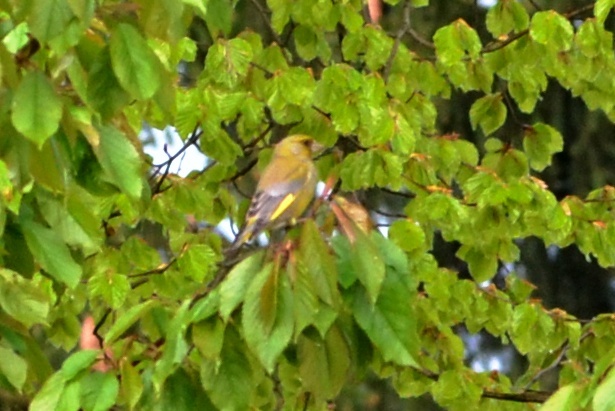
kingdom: Plantae
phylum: Tracheophyta
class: Liliopsida
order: Poales
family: Poaceae
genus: Chloris
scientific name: Chloris chloris
